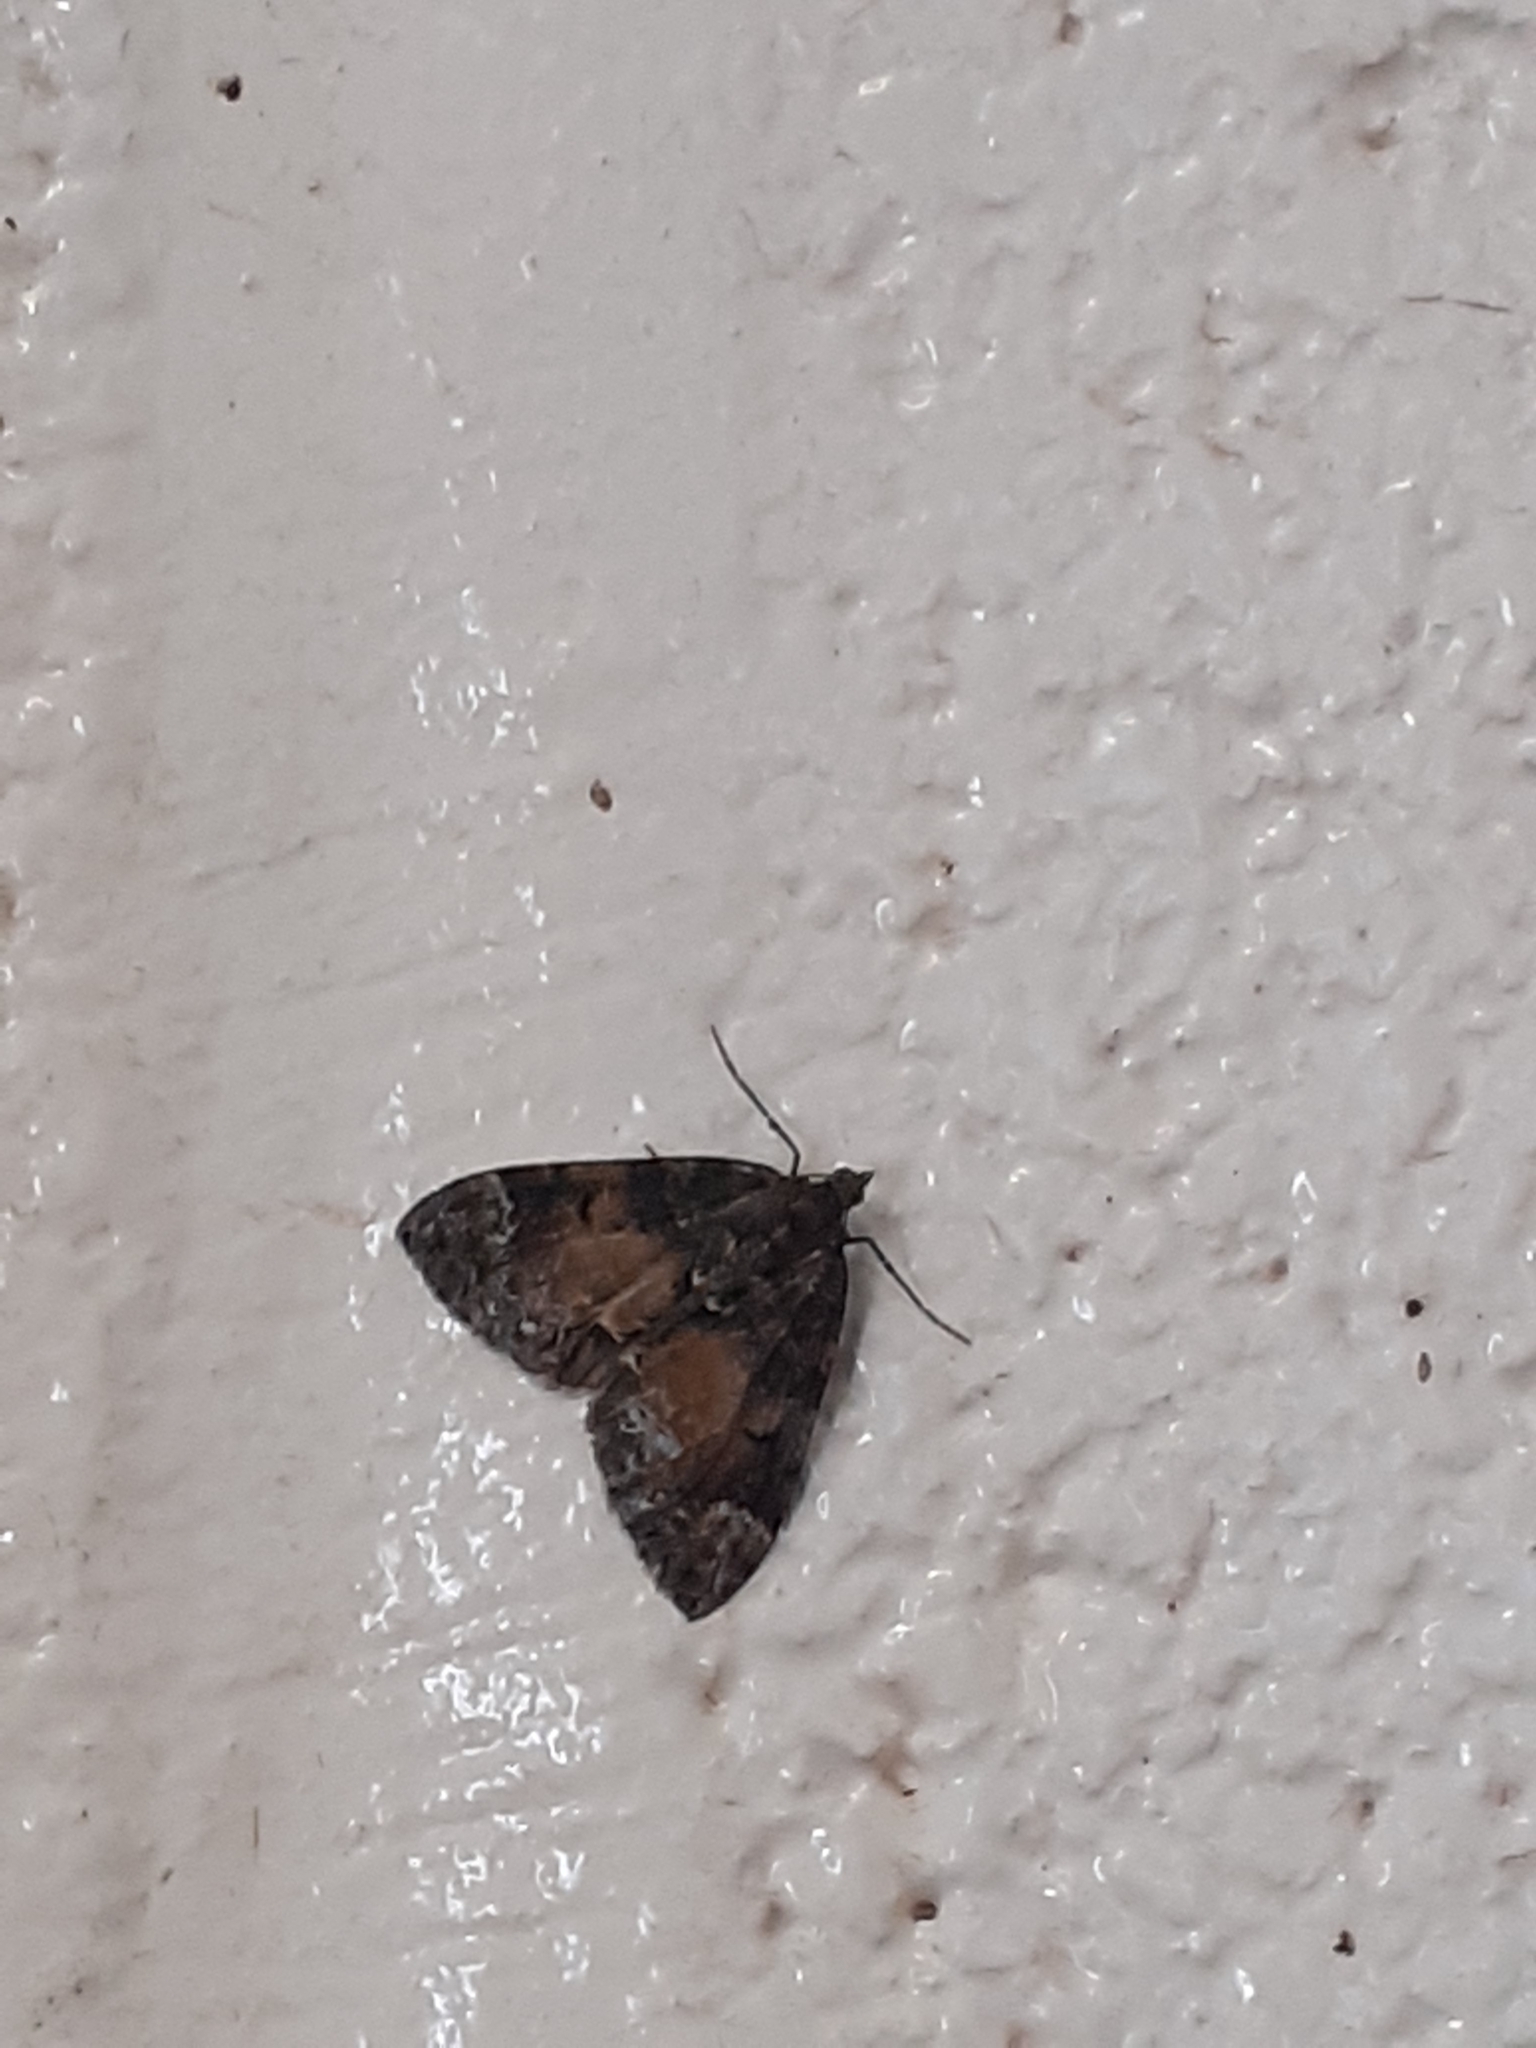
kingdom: Animalia
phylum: Arthropoda
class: Insecta
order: Lepidoptera
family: Geometridae
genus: Dysstroma
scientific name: Dysstroma truncata
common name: Common marbled carpet
